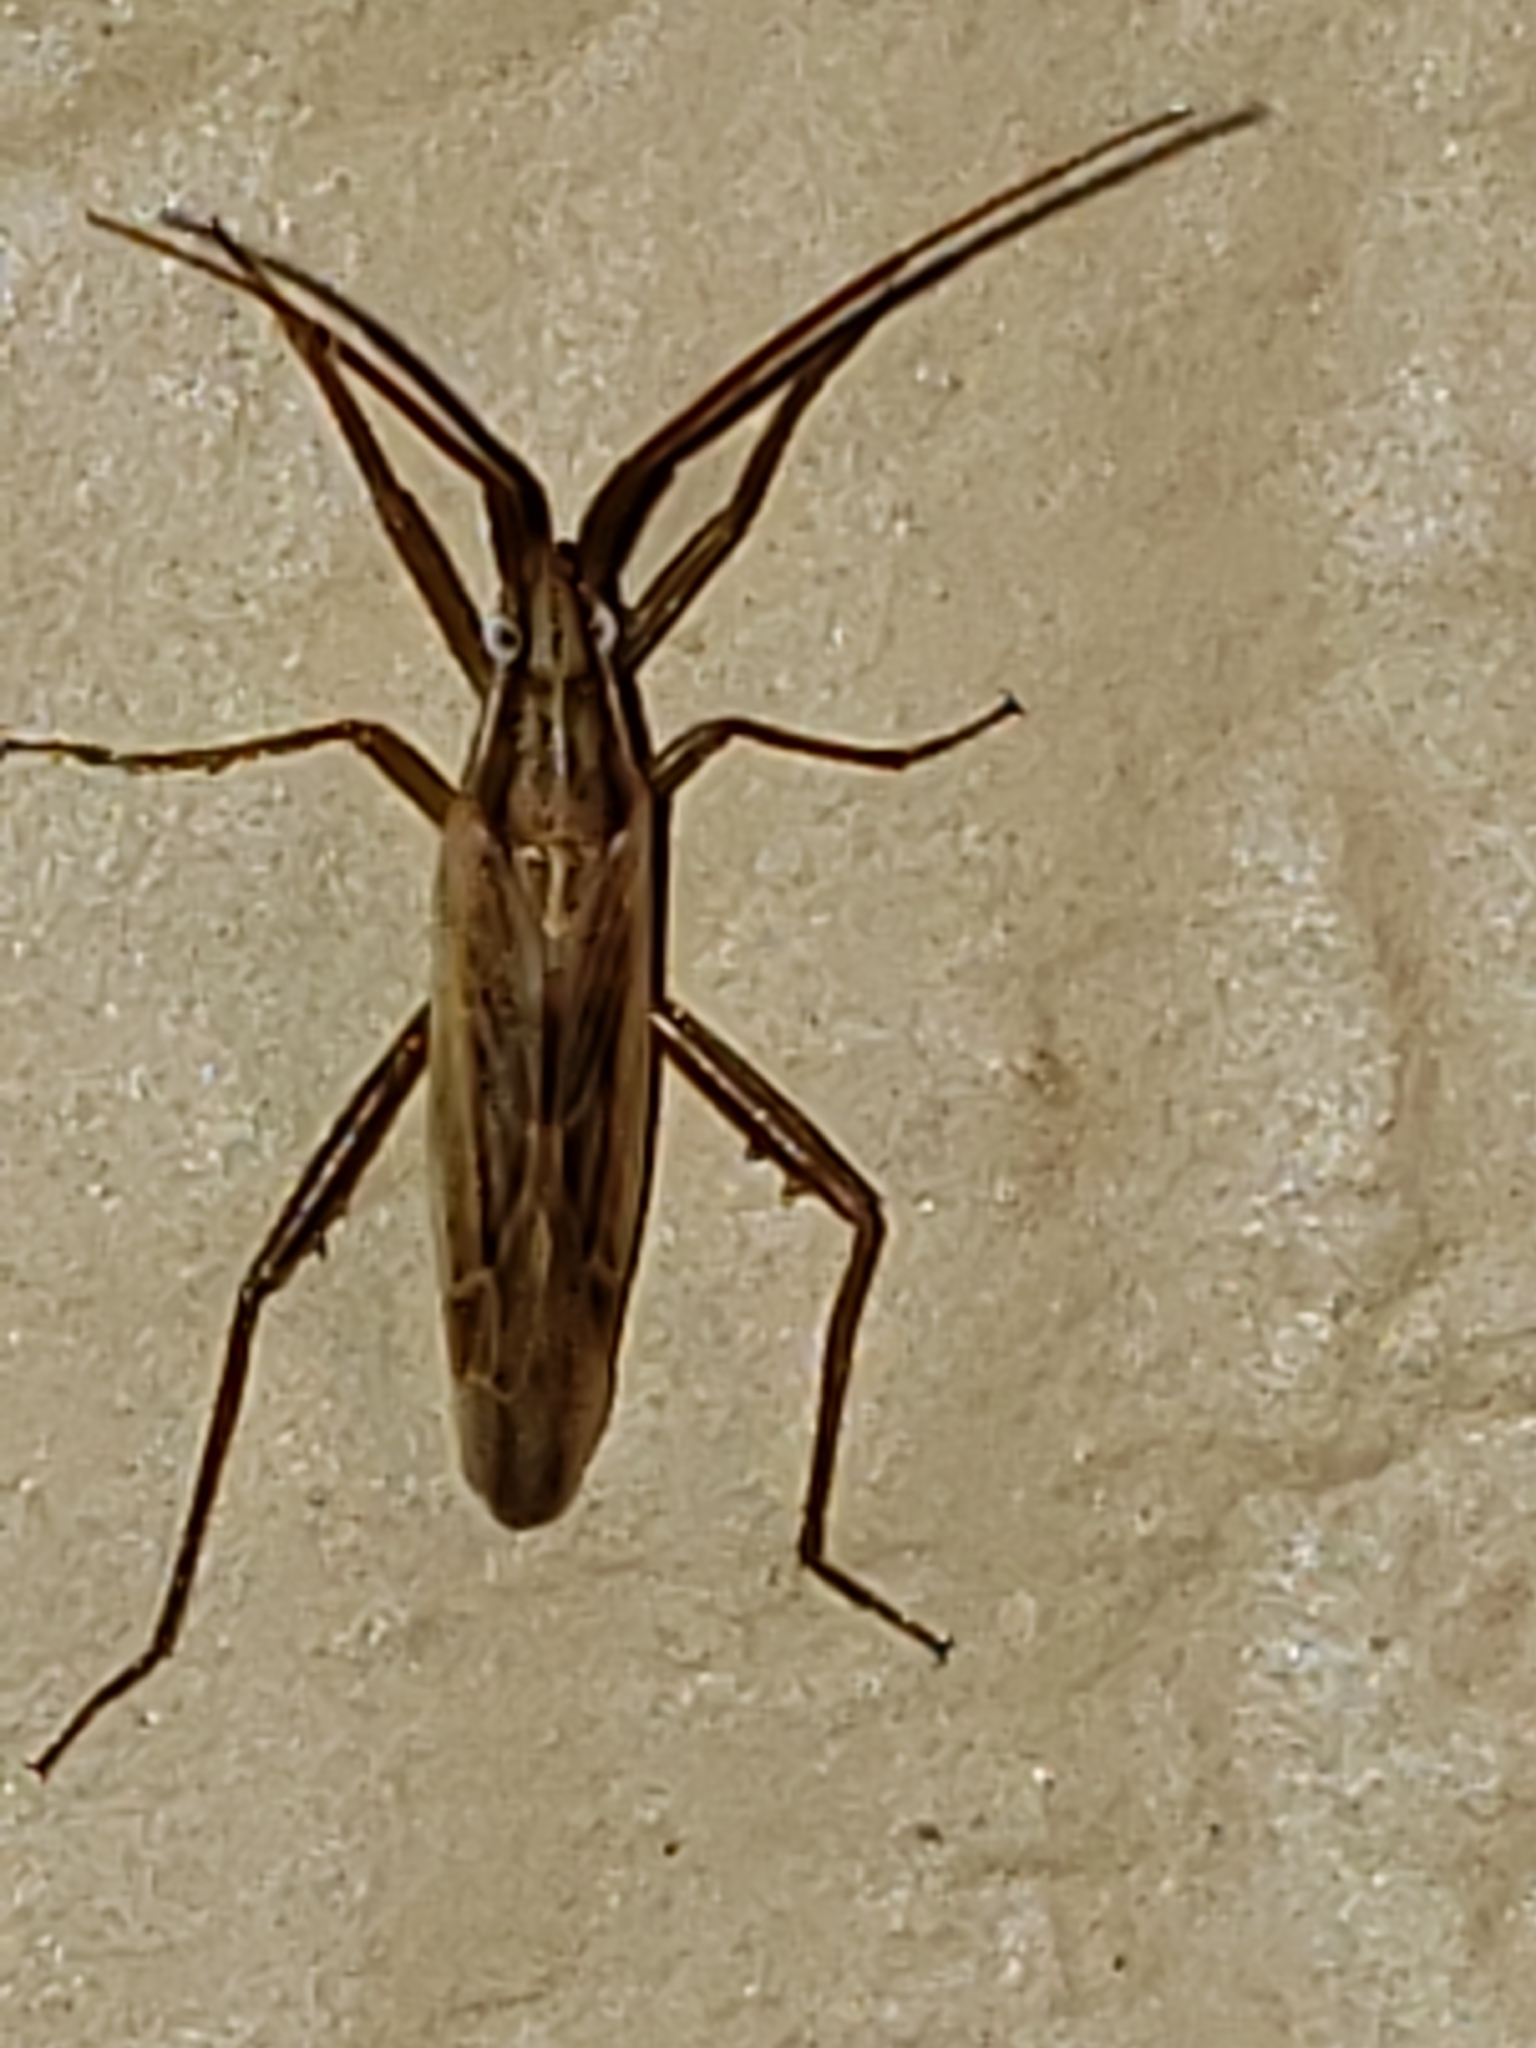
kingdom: Animalia
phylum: Arthropoda
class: Insecta
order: Hemiptera
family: Miridae
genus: Stenodema
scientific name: Stenodema trispinosa
